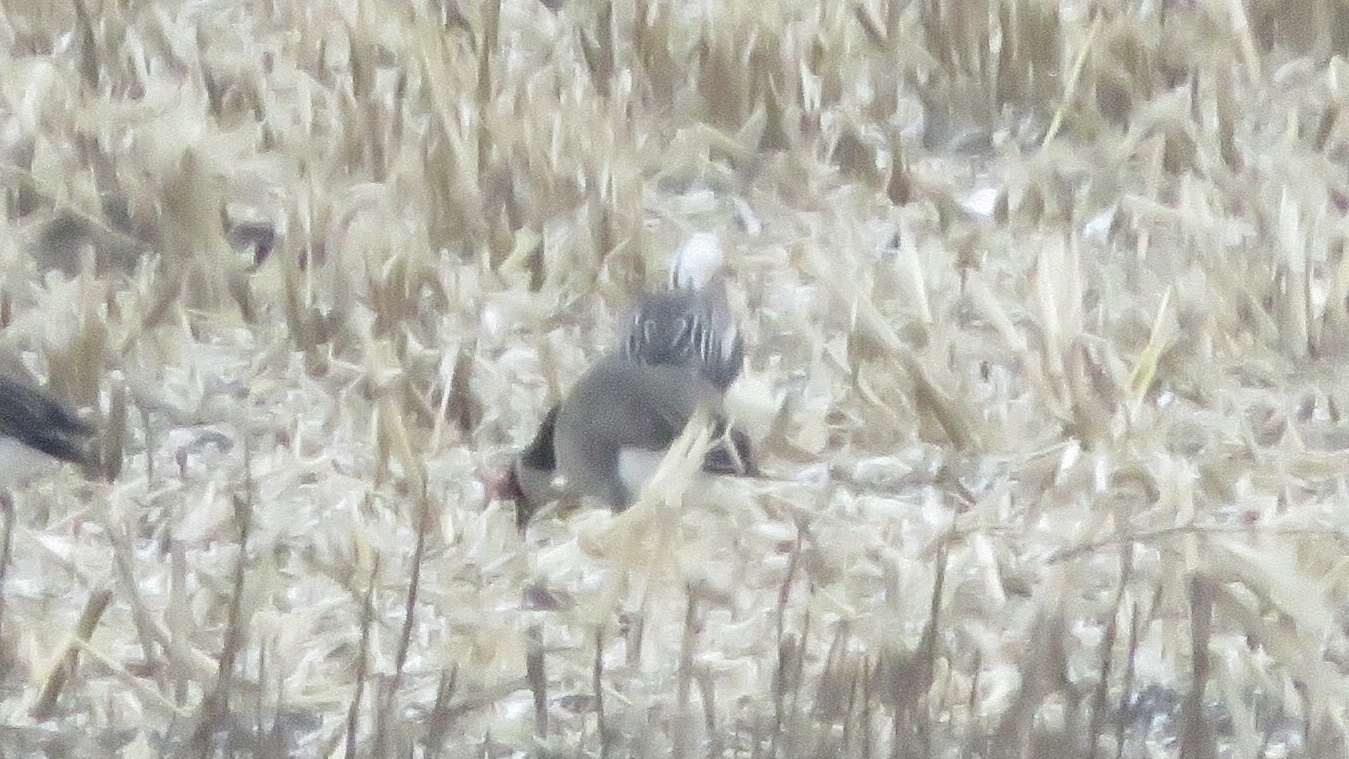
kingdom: Animalia
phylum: Chordata
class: Aves
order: Anseriformes
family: Anatidae
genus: Anser
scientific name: Anser caerulescens
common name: Snow goose
